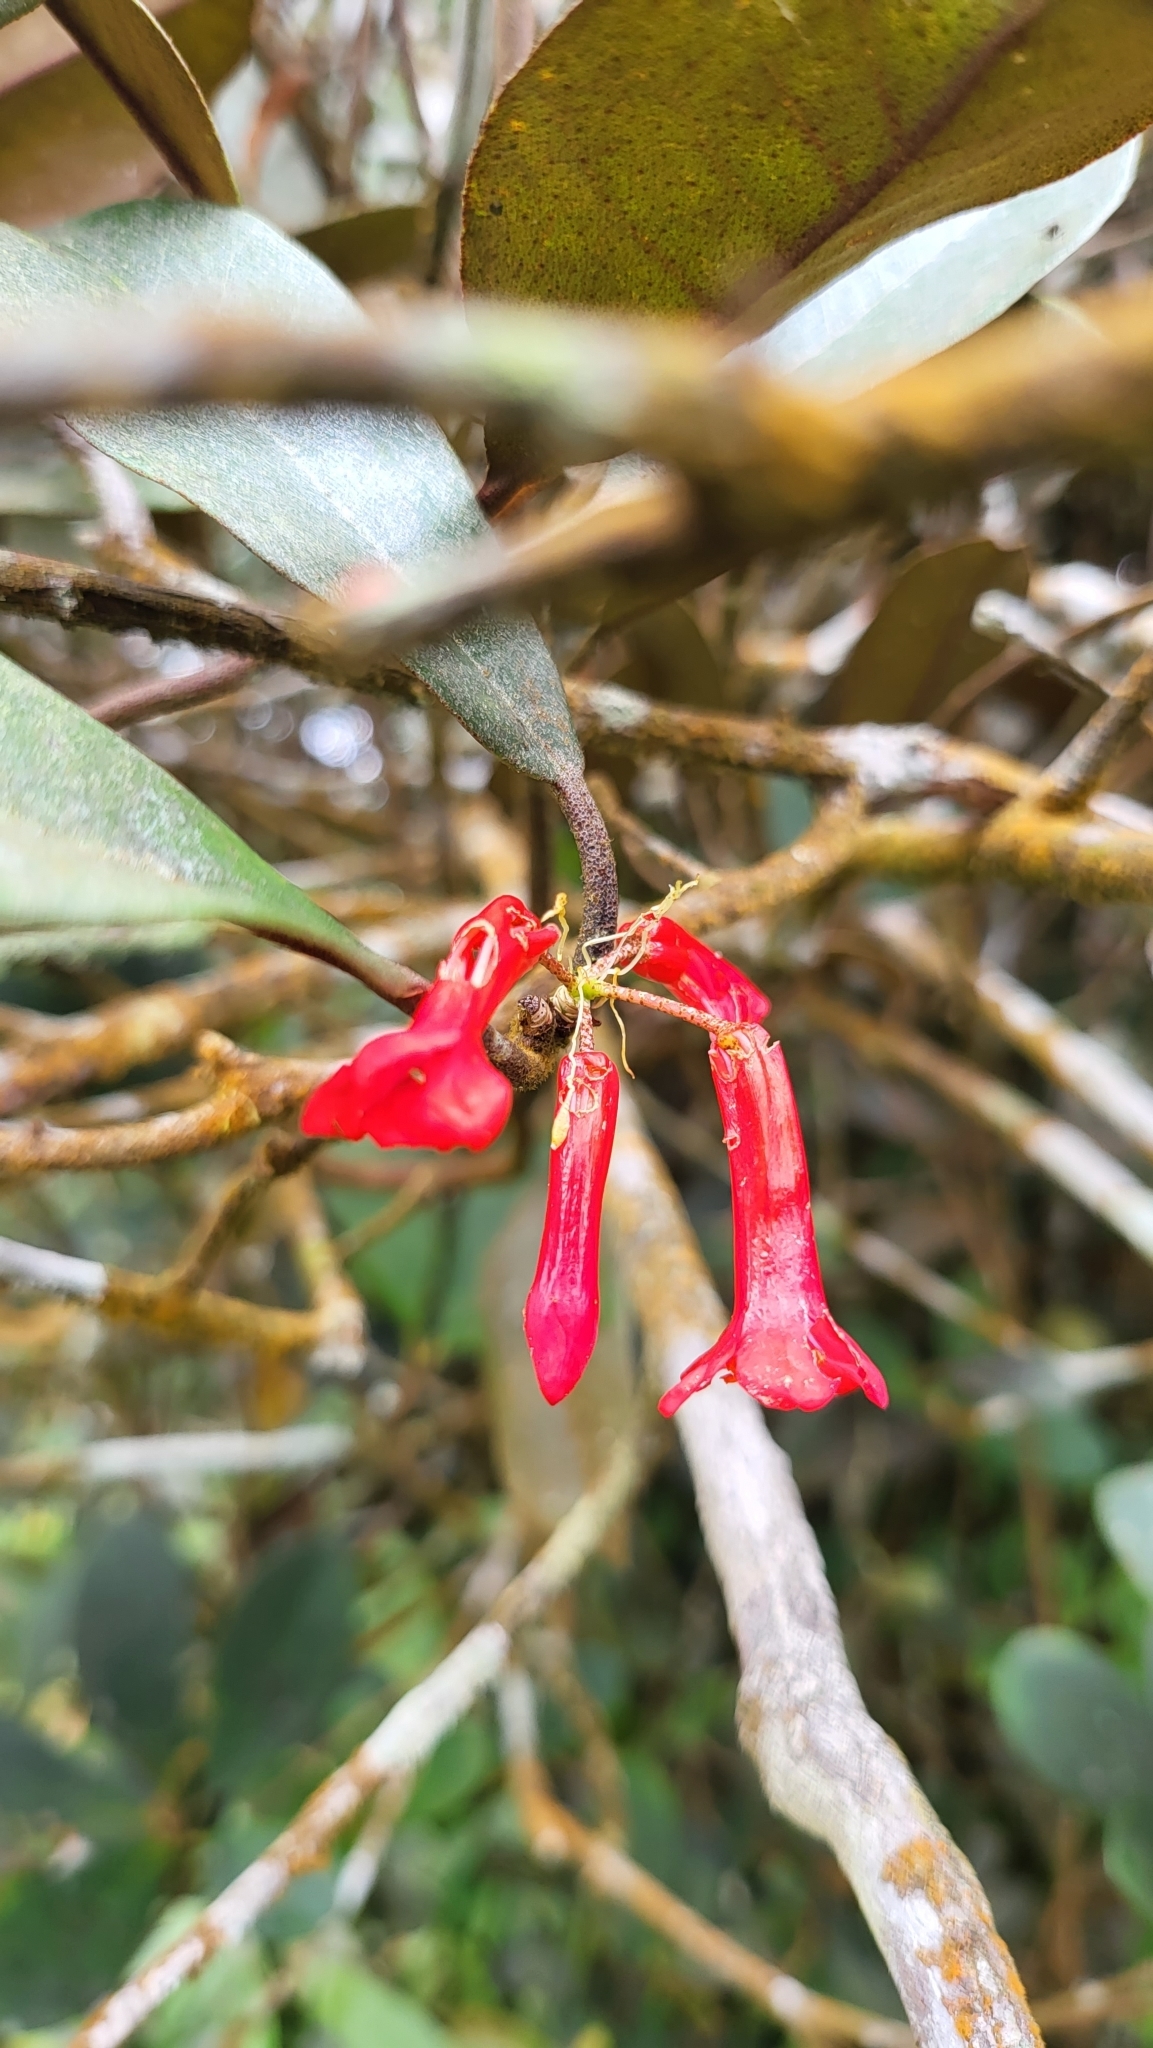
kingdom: Plantae
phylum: Tracheophyta
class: Magnoliopsida
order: Ericales
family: Ericaceae
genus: Rhododendron
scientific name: Rhododendron malayanum
